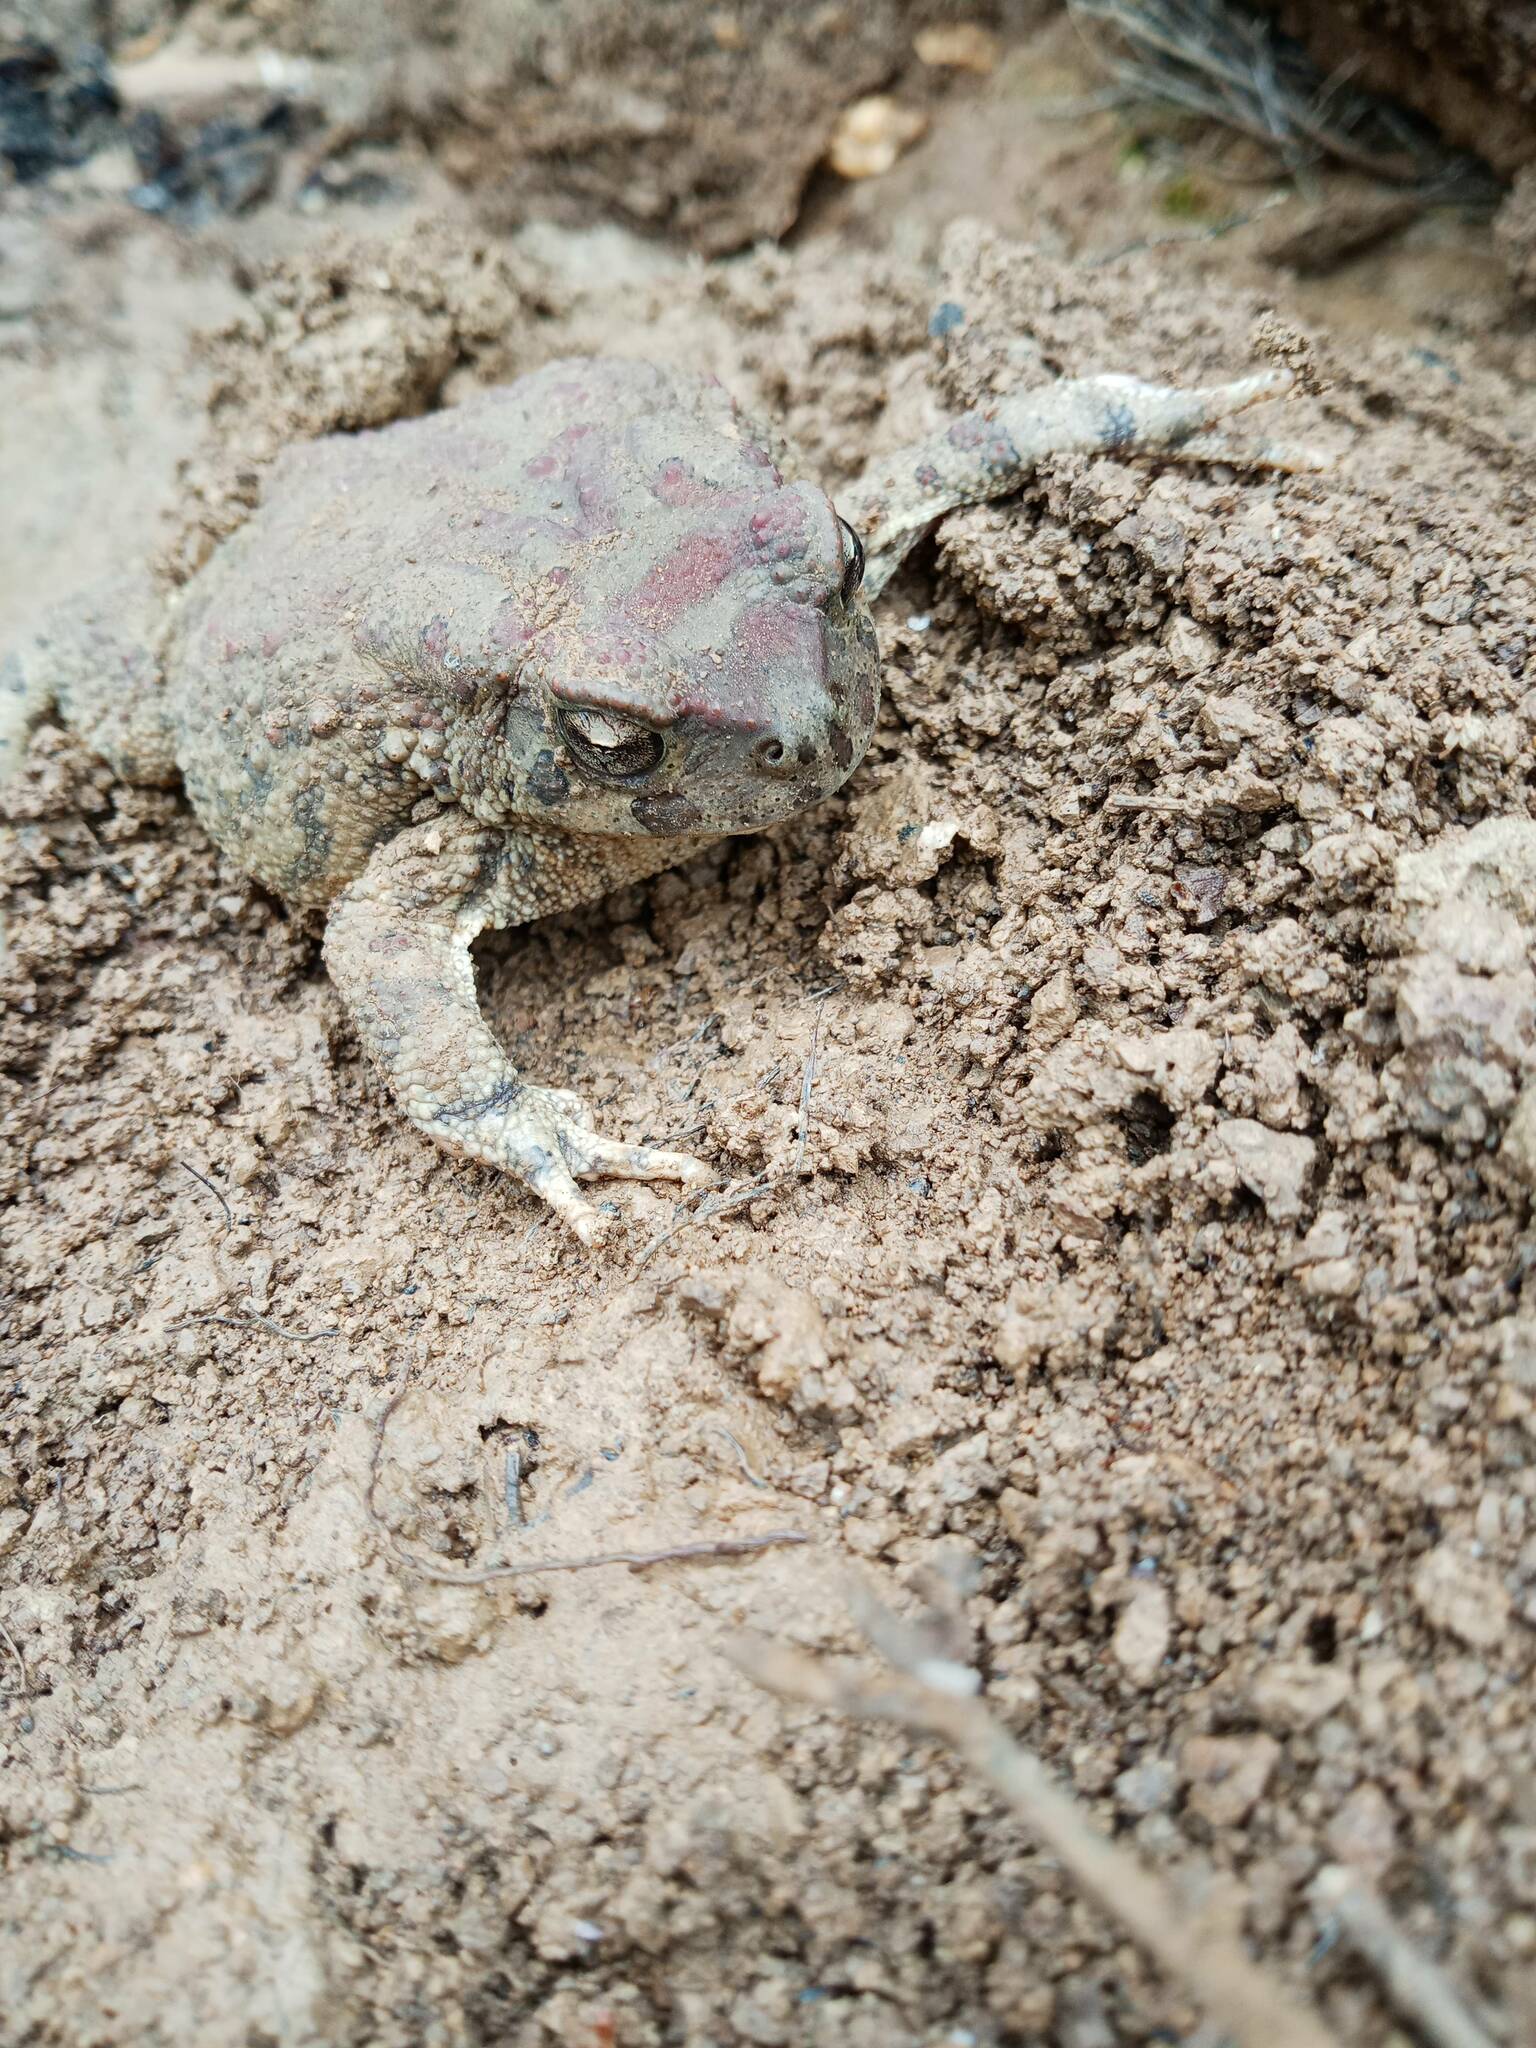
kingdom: Animalia
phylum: Chordata
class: Amphibia
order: Anura
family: Bufonidae
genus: Sclerophrys
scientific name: Sclerophrys mauritanica
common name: Berber toad
